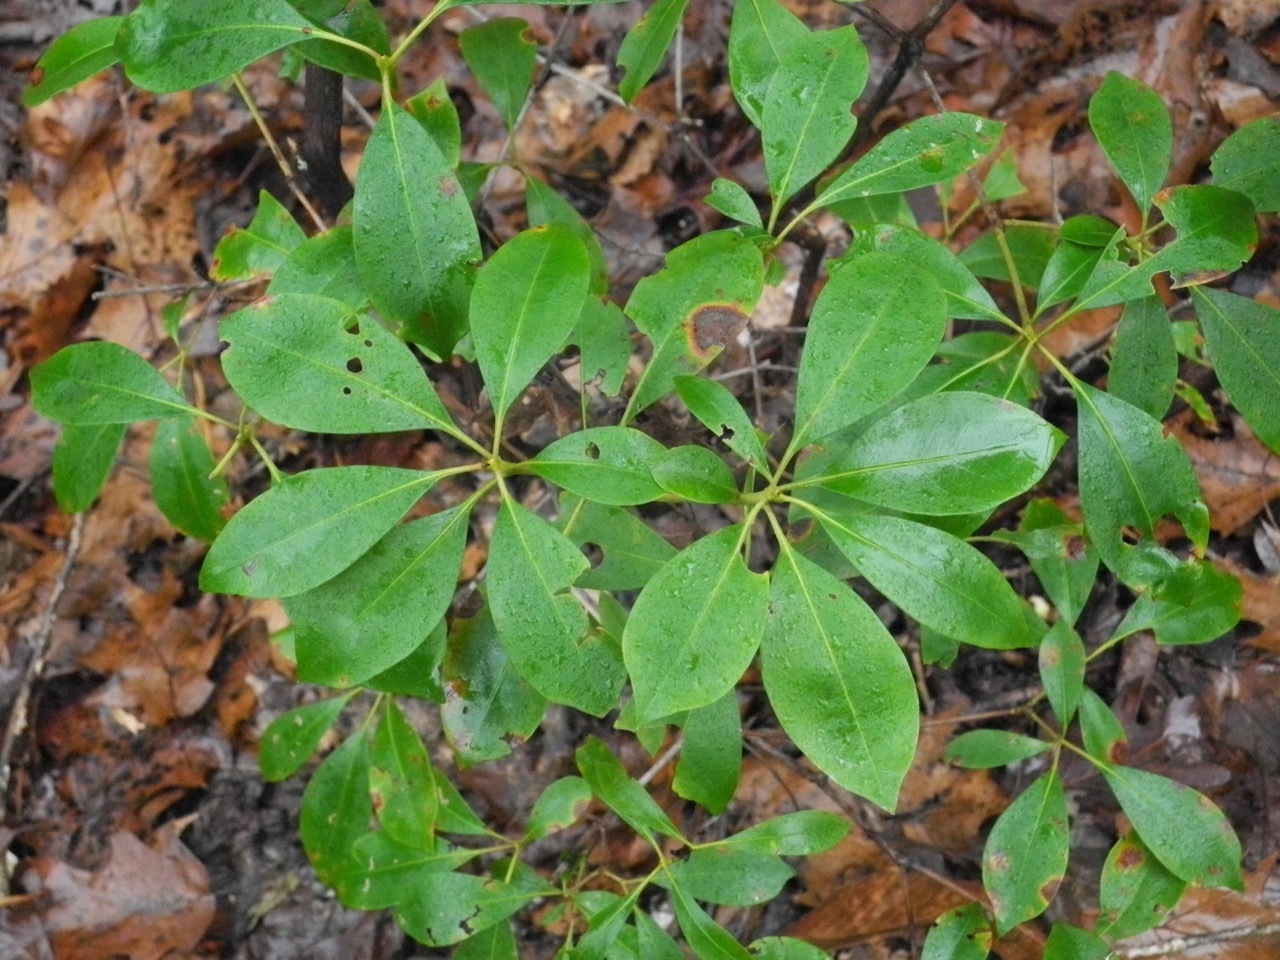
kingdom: Plantae
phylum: Tracheophyta
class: Magnoliopsida
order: Ericales
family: Ericaceae
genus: Kalmia
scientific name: Kalmia latifolia
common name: Mountain-laurel
